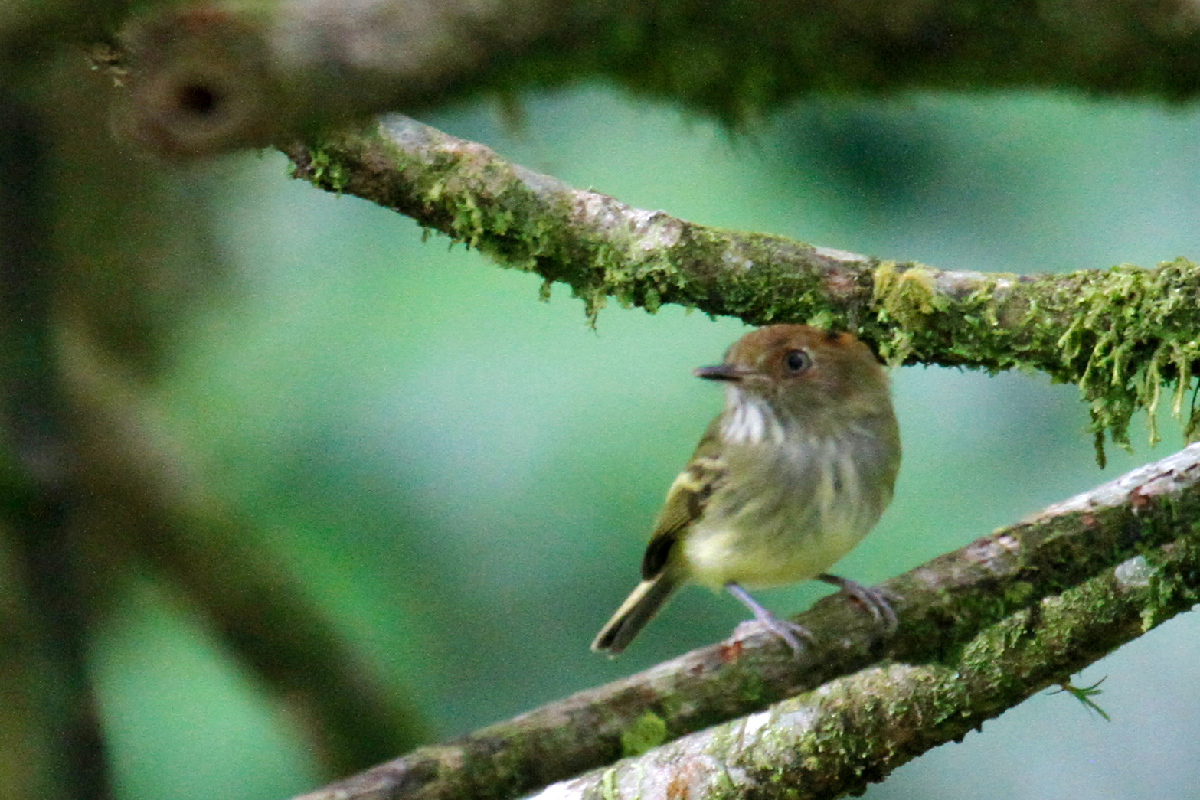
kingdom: Animalia
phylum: Chordata
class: Aves
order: Passeriformes
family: Tyrannidae
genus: Lophotriccus
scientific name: Lophotriccus pileatus
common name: Scale-crested pygmy-tyrant
